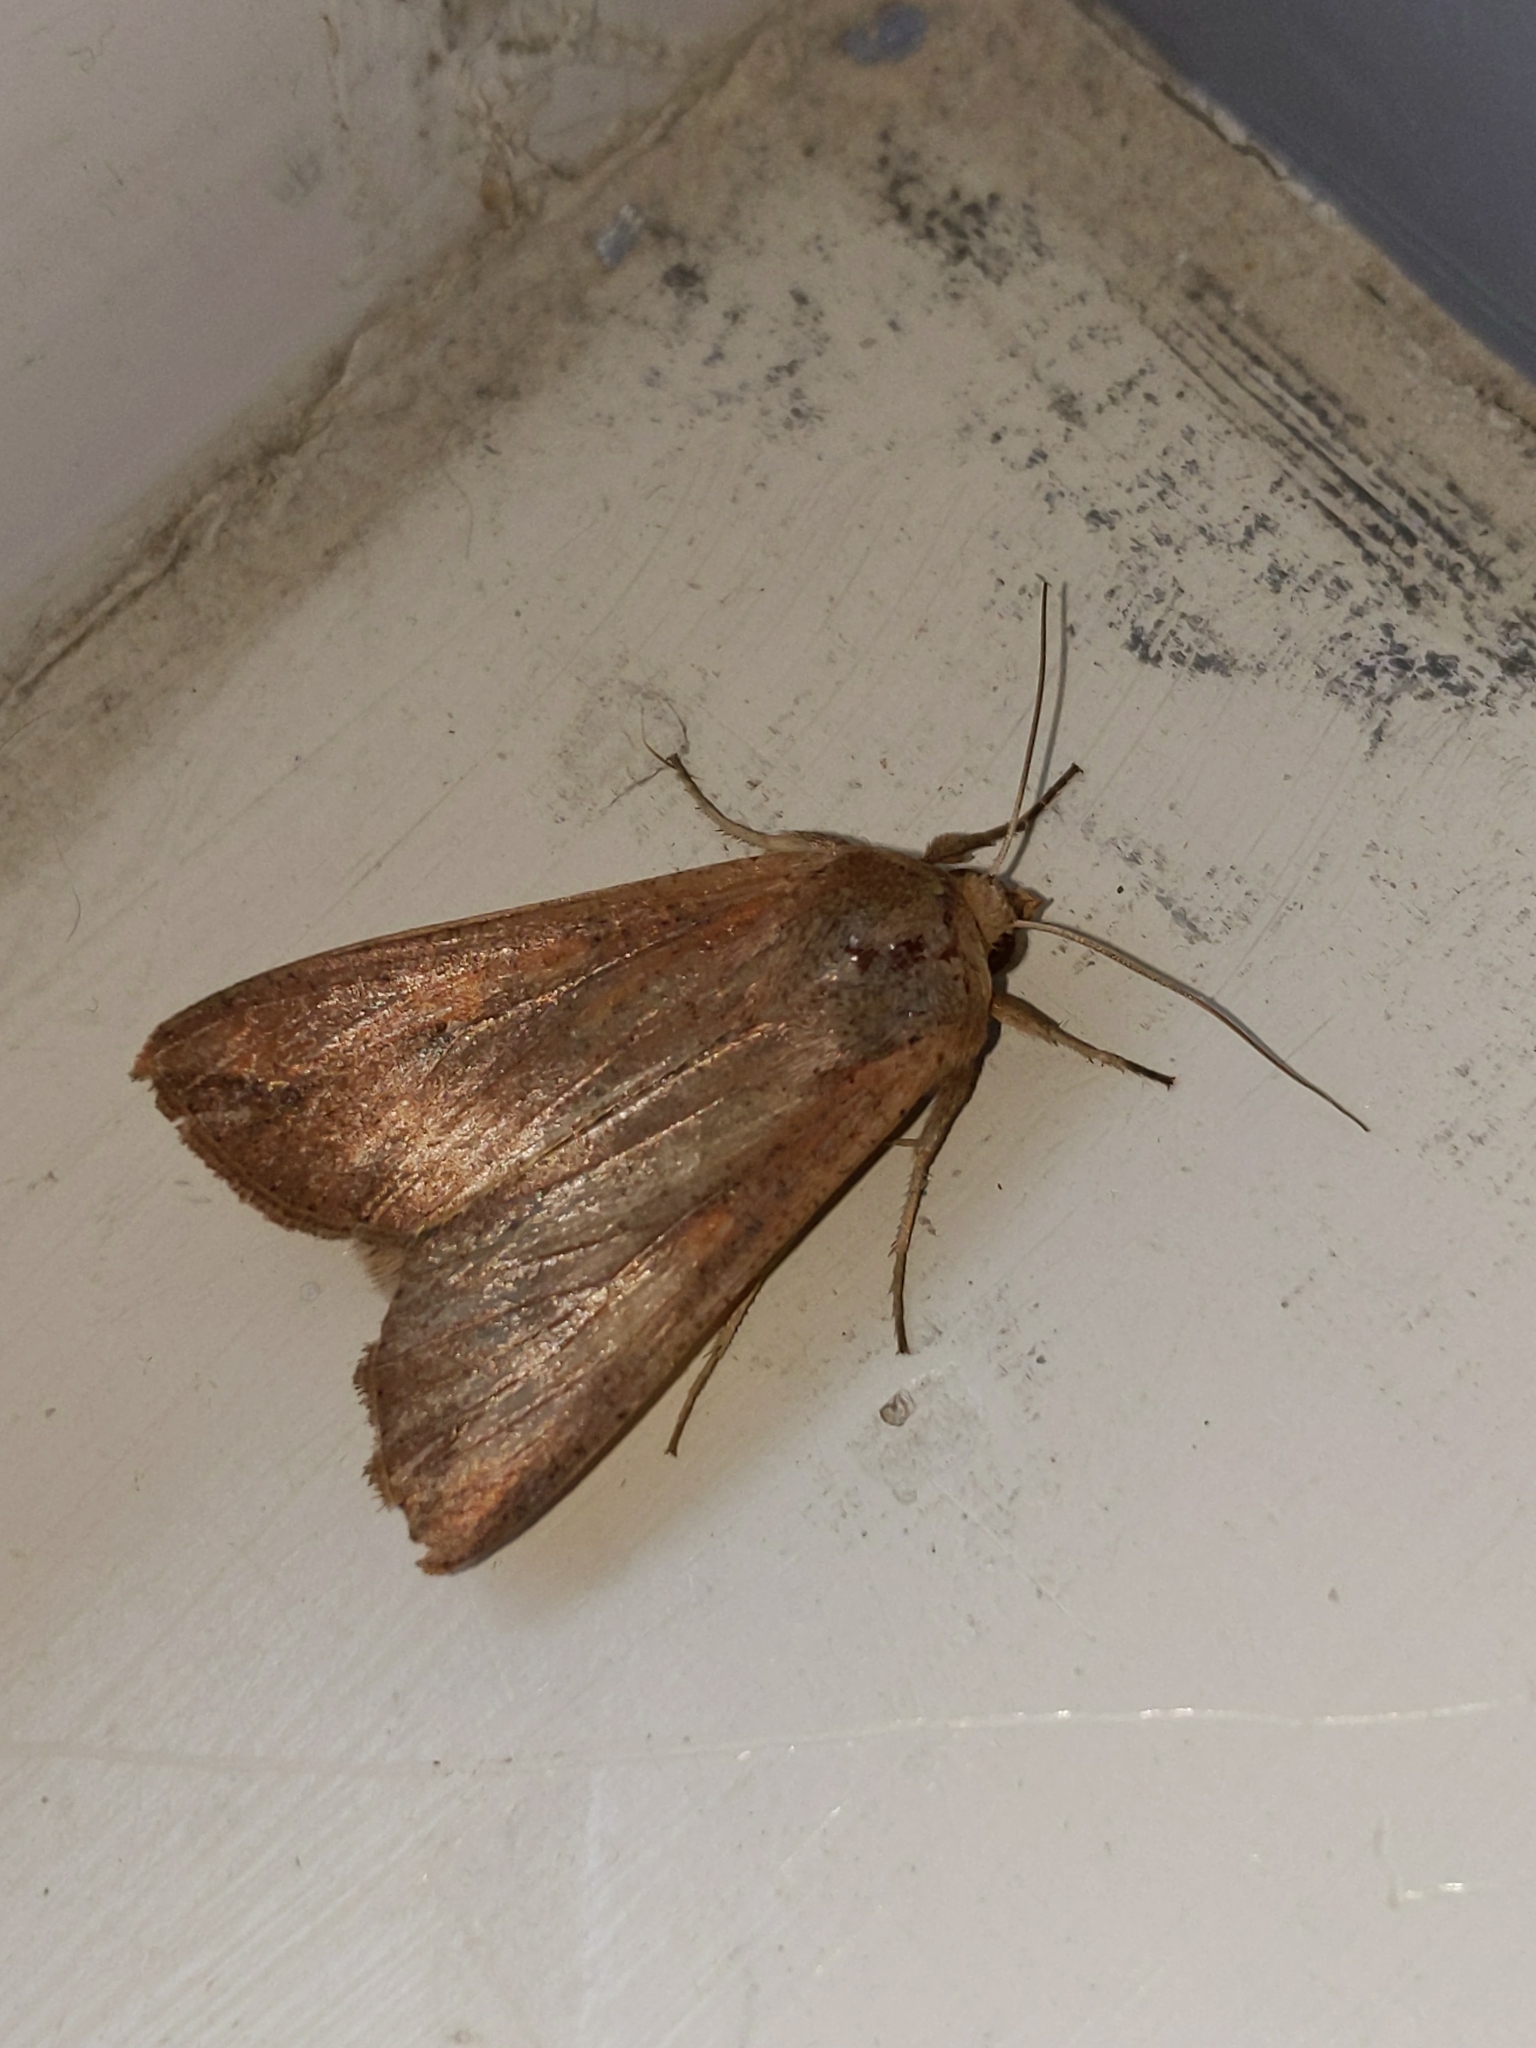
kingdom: Animalia
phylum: Arthropoda
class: Insecta
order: Lepidoptera
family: Noctuidae
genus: Mythimna
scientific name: Mythimna unipuncta
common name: White-speck
